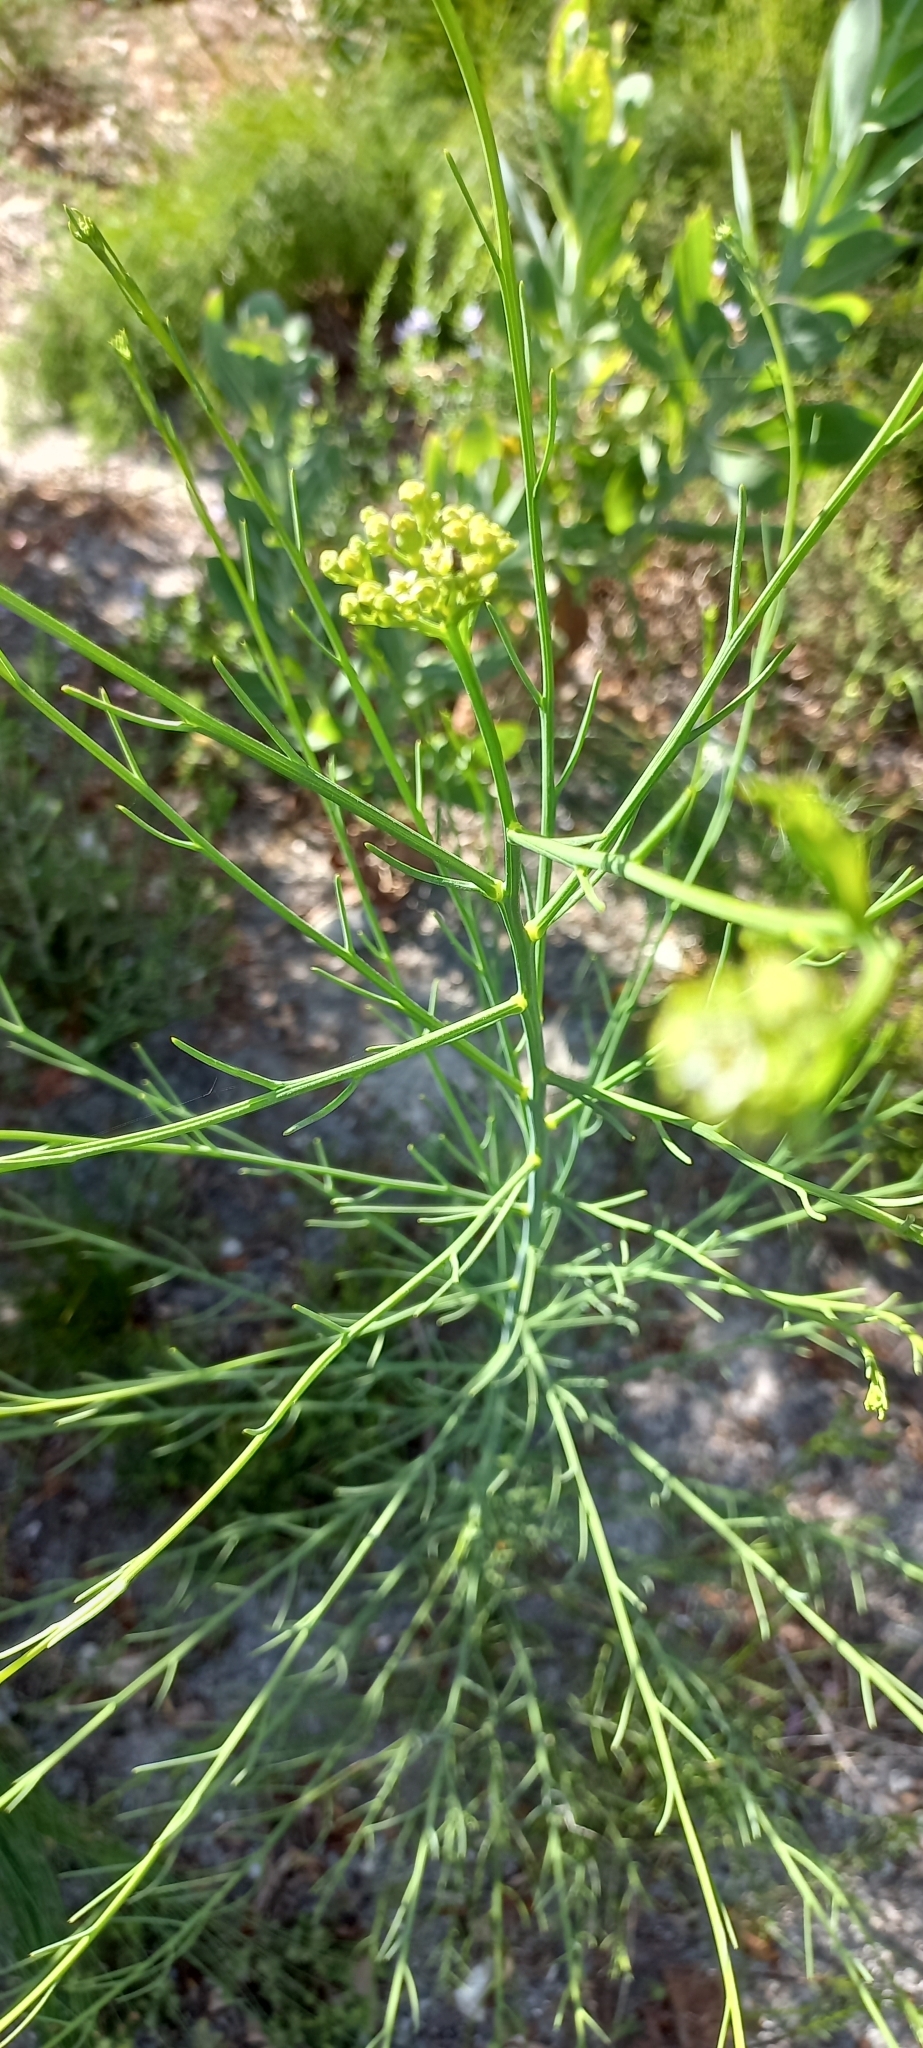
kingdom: Plantae
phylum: Tracheophyta
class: Magnoliopsida
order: Santalales
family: Thesiaceae
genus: Thesium
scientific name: Thesium strictum
